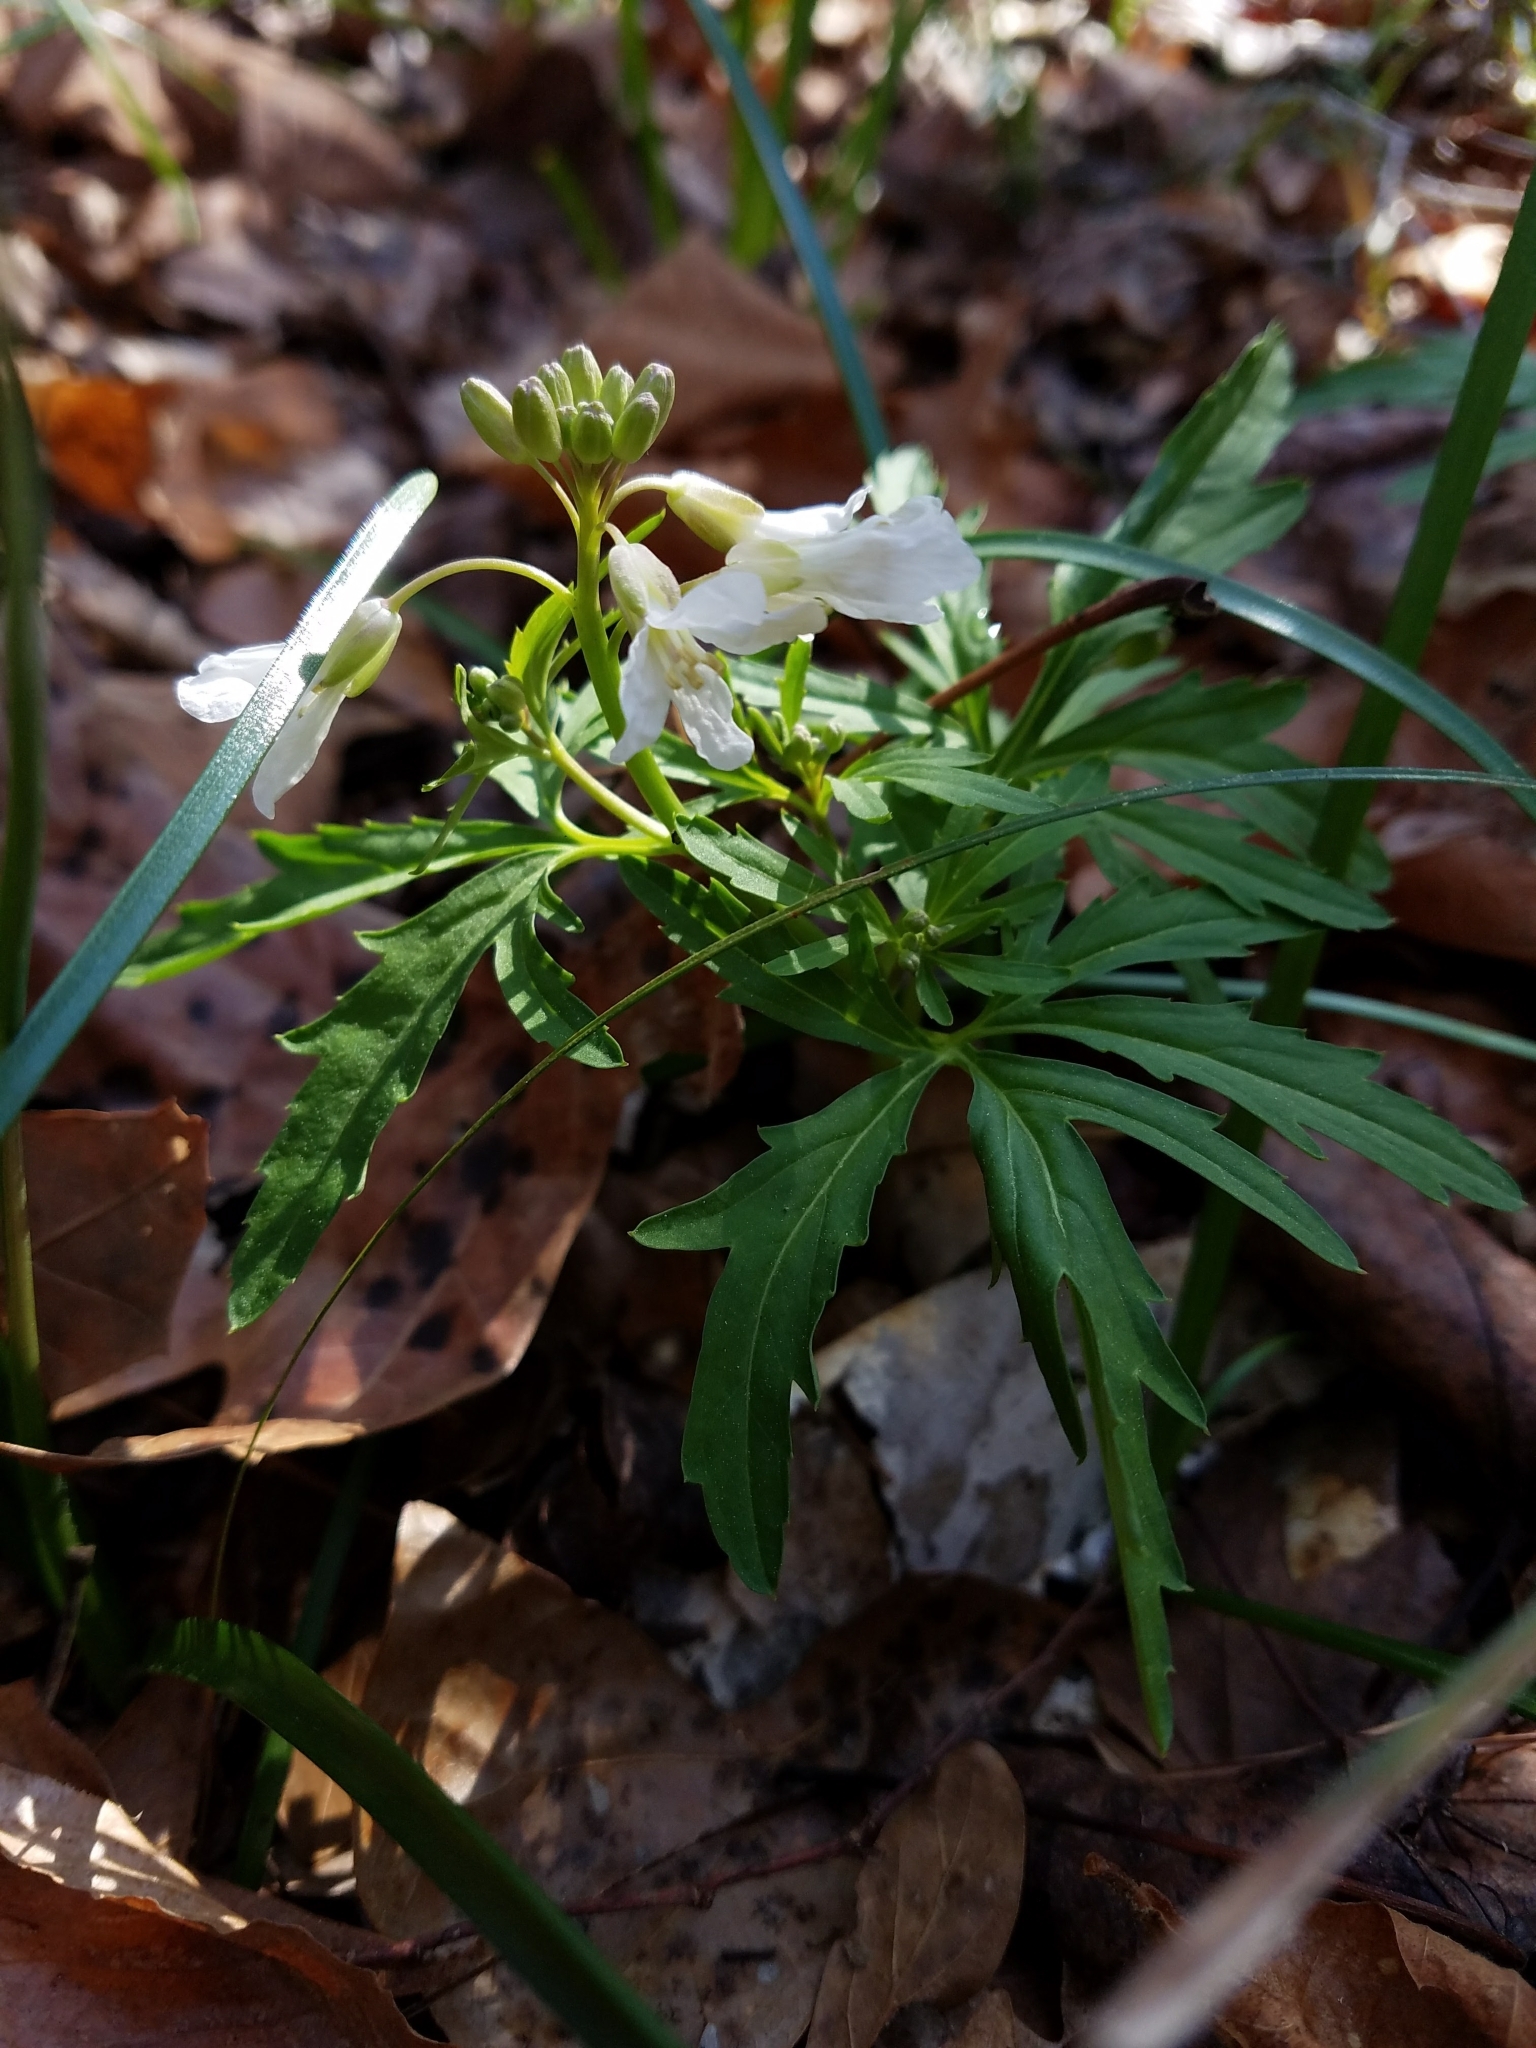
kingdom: Plantae
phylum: Tracheophyta
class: Magnoliopsida
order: Brassicales
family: Brassicaceae
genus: Cardamine
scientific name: Cardamine concatenata
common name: Cut-leaf toothcup
